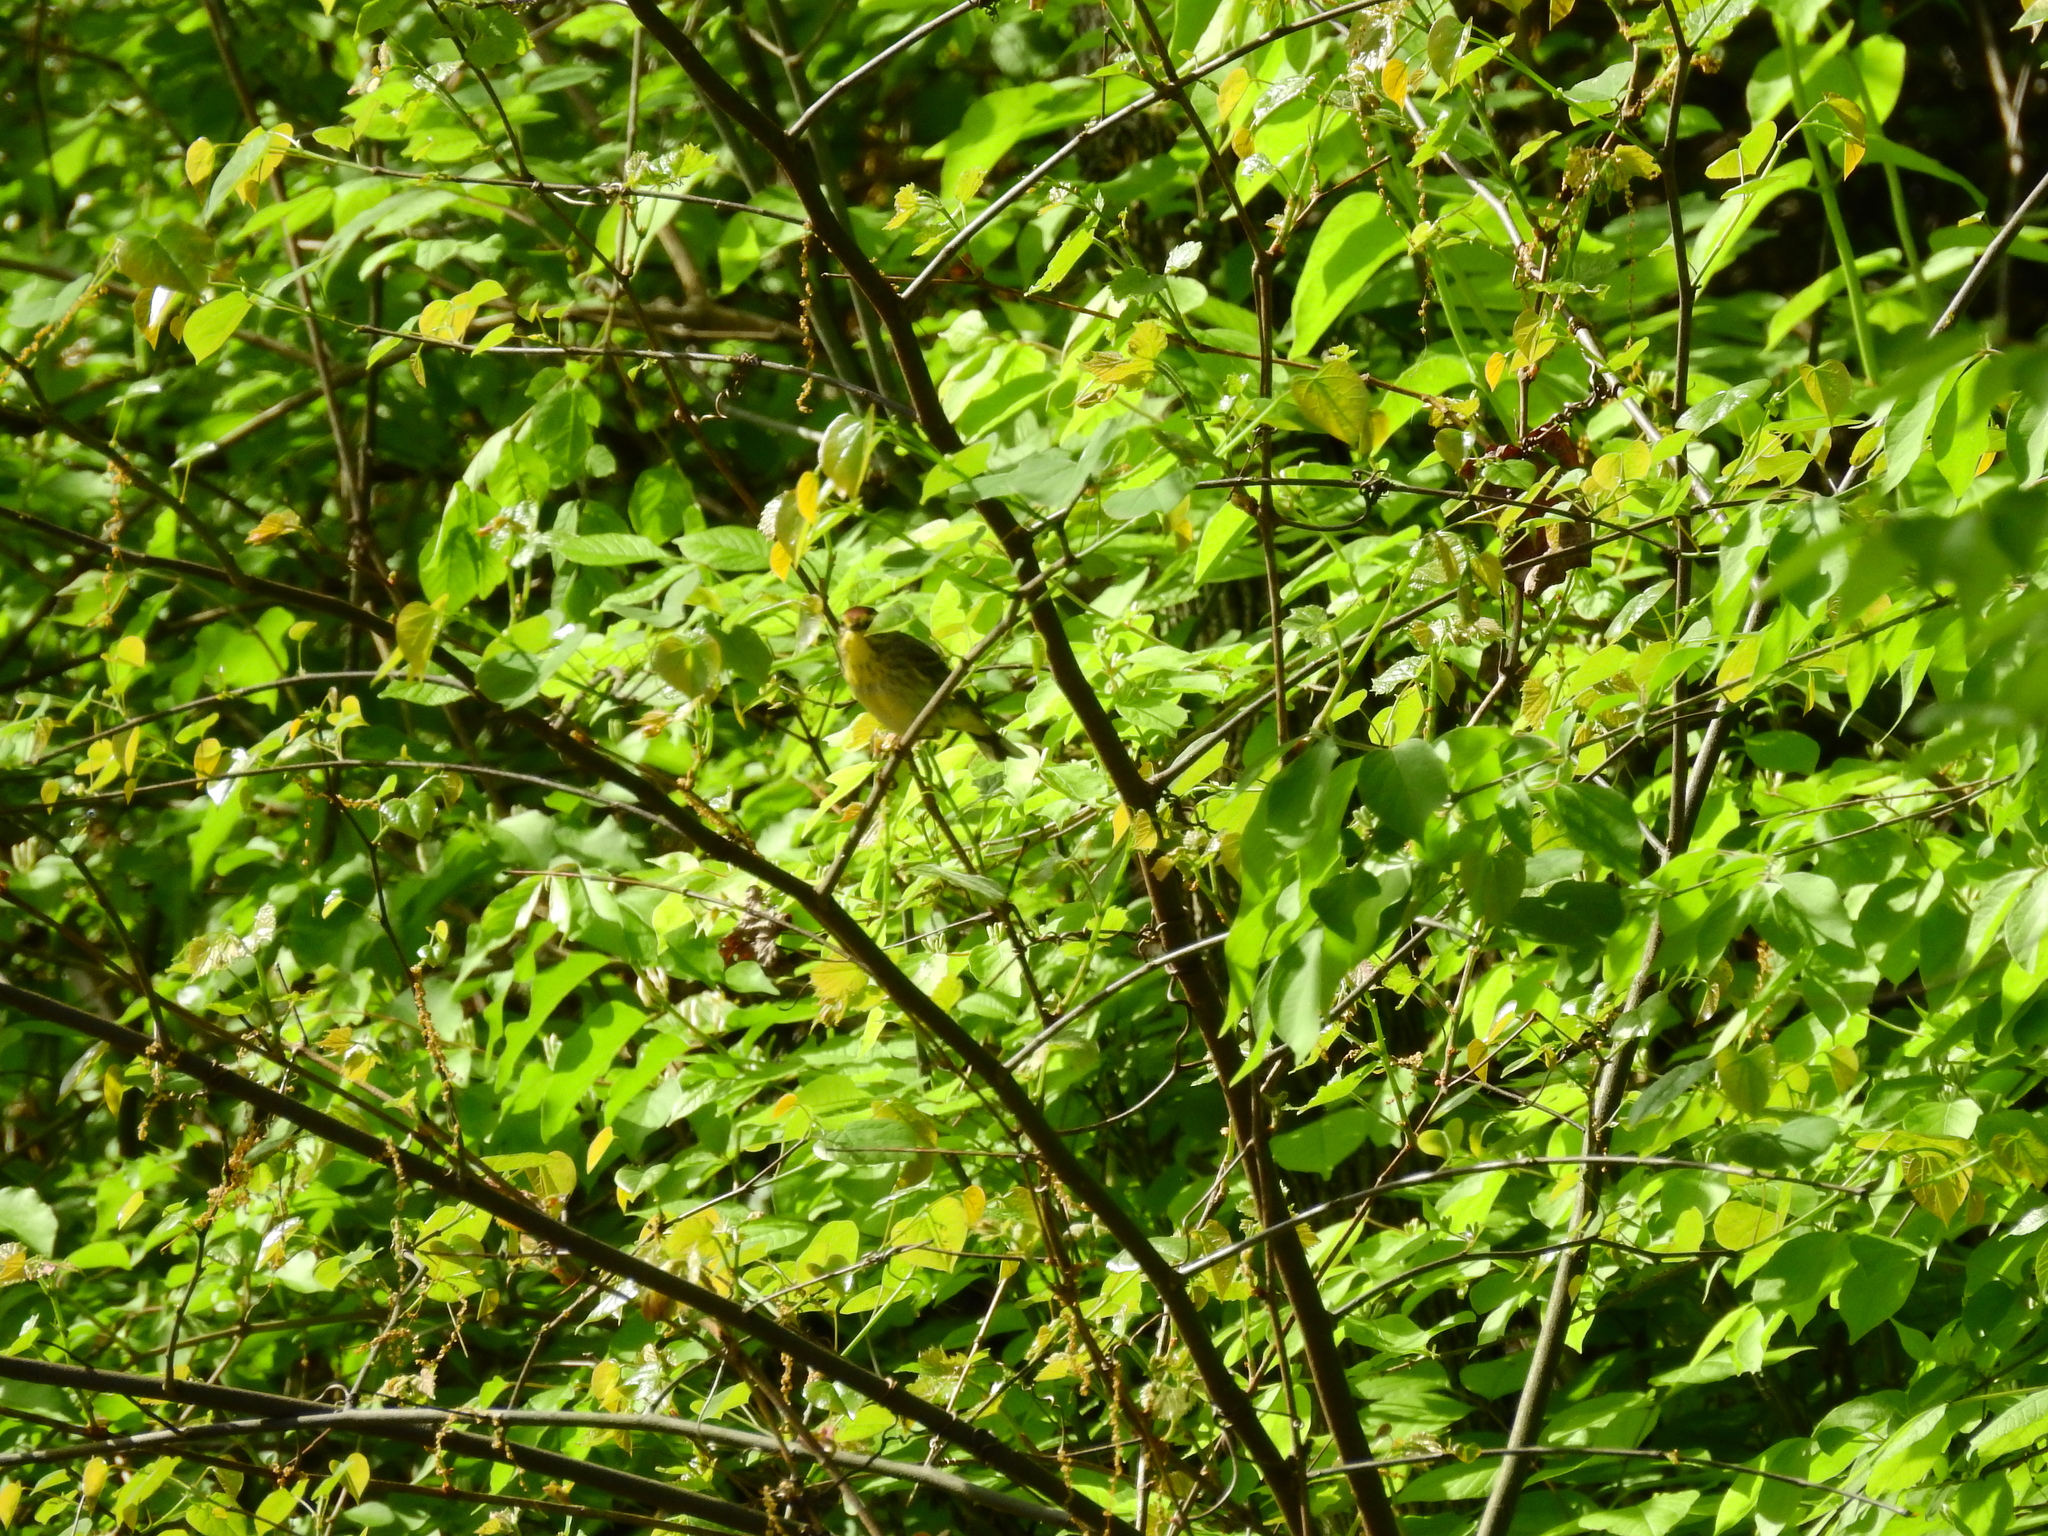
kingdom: Animalia
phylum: Chordata
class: Aves
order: Passeriformes
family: Parulidae
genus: Setophaga
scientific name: Setophaga palmarum
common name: Palm warbler
